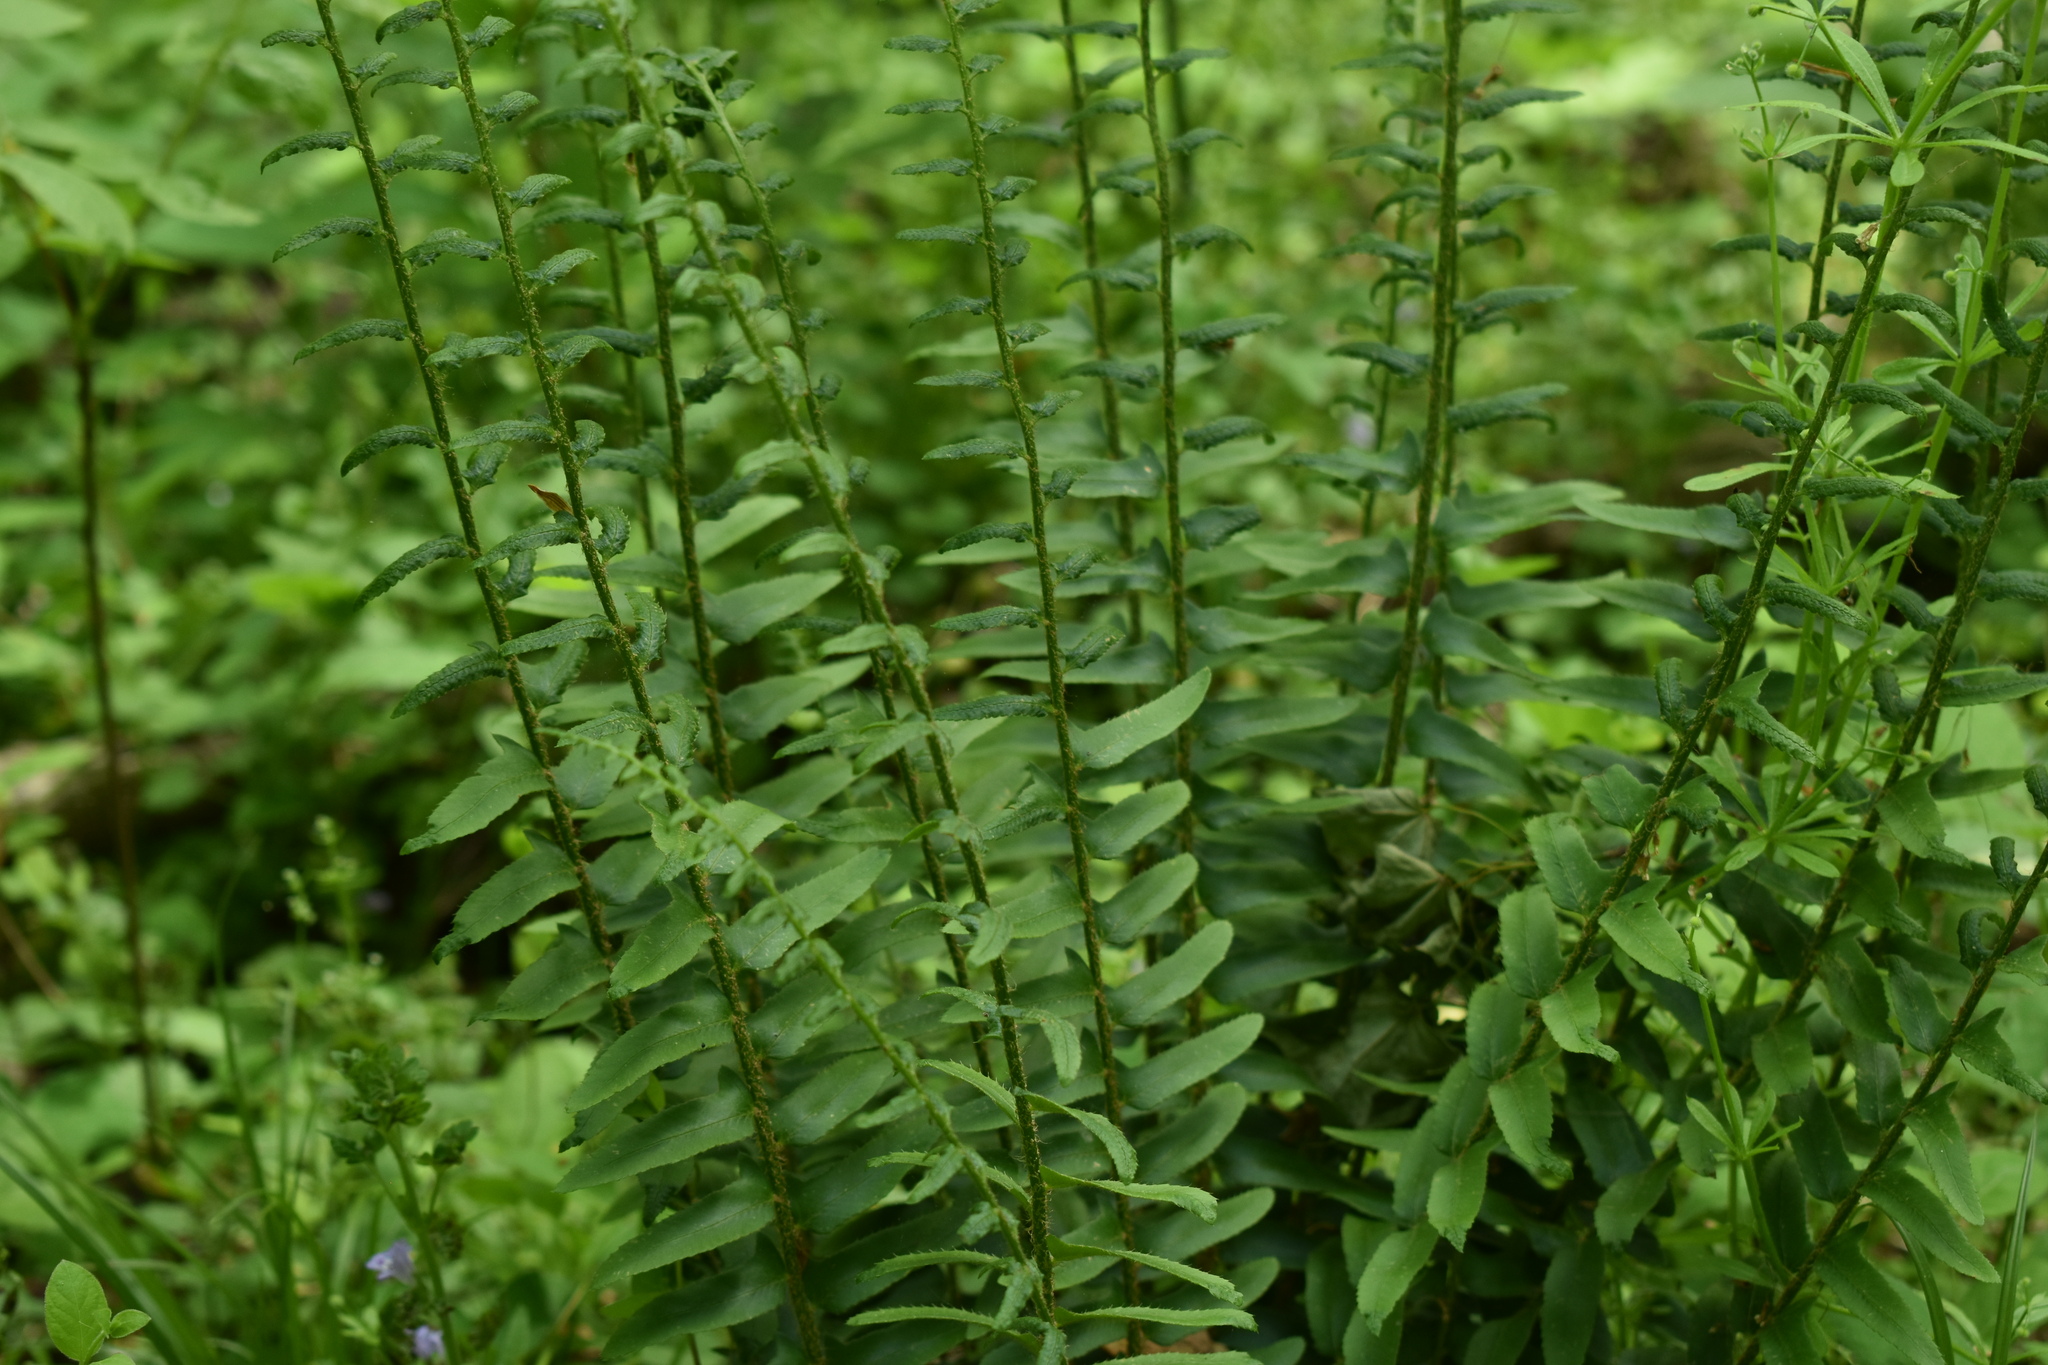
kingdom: Plantae
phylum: Tracheophyta
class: Polypodiopsida
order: Polypodiales
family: Dryopteridaceae
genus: Polystichum
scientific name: Polystichum acrostichoides
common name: Christmas fern
